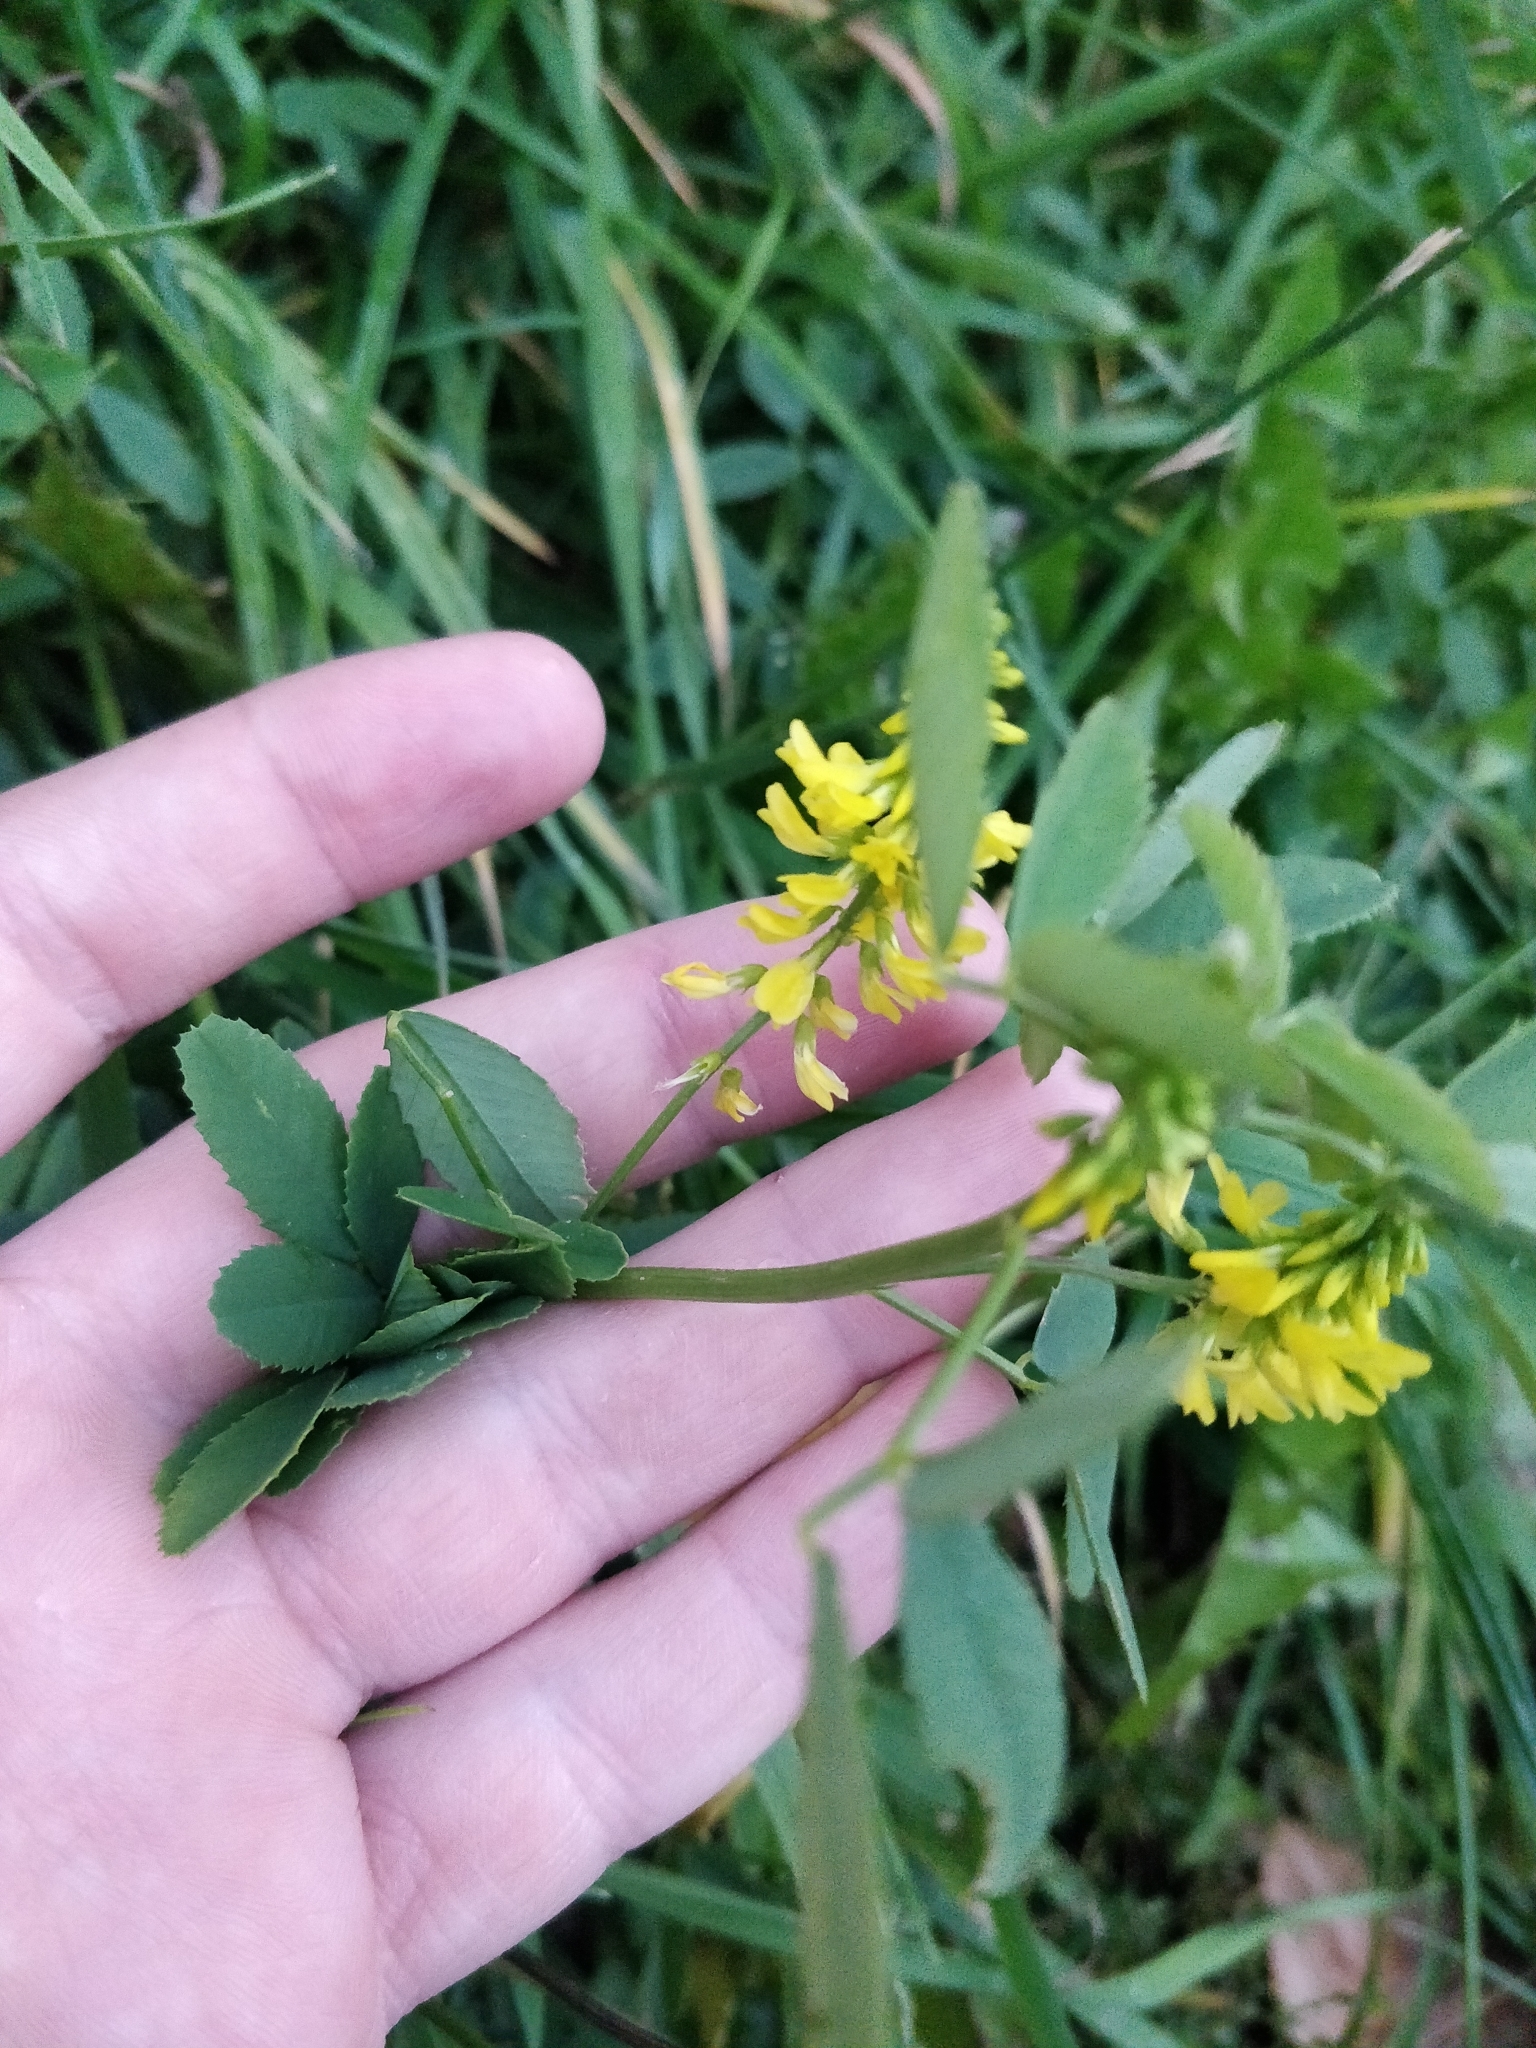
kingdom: Plantae
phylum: Tracheophyta
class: Magnoliopsida
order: Fabales
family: Fabaceae
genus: Melilotus
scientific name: Melilotus officinalis
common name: Sweetclover
